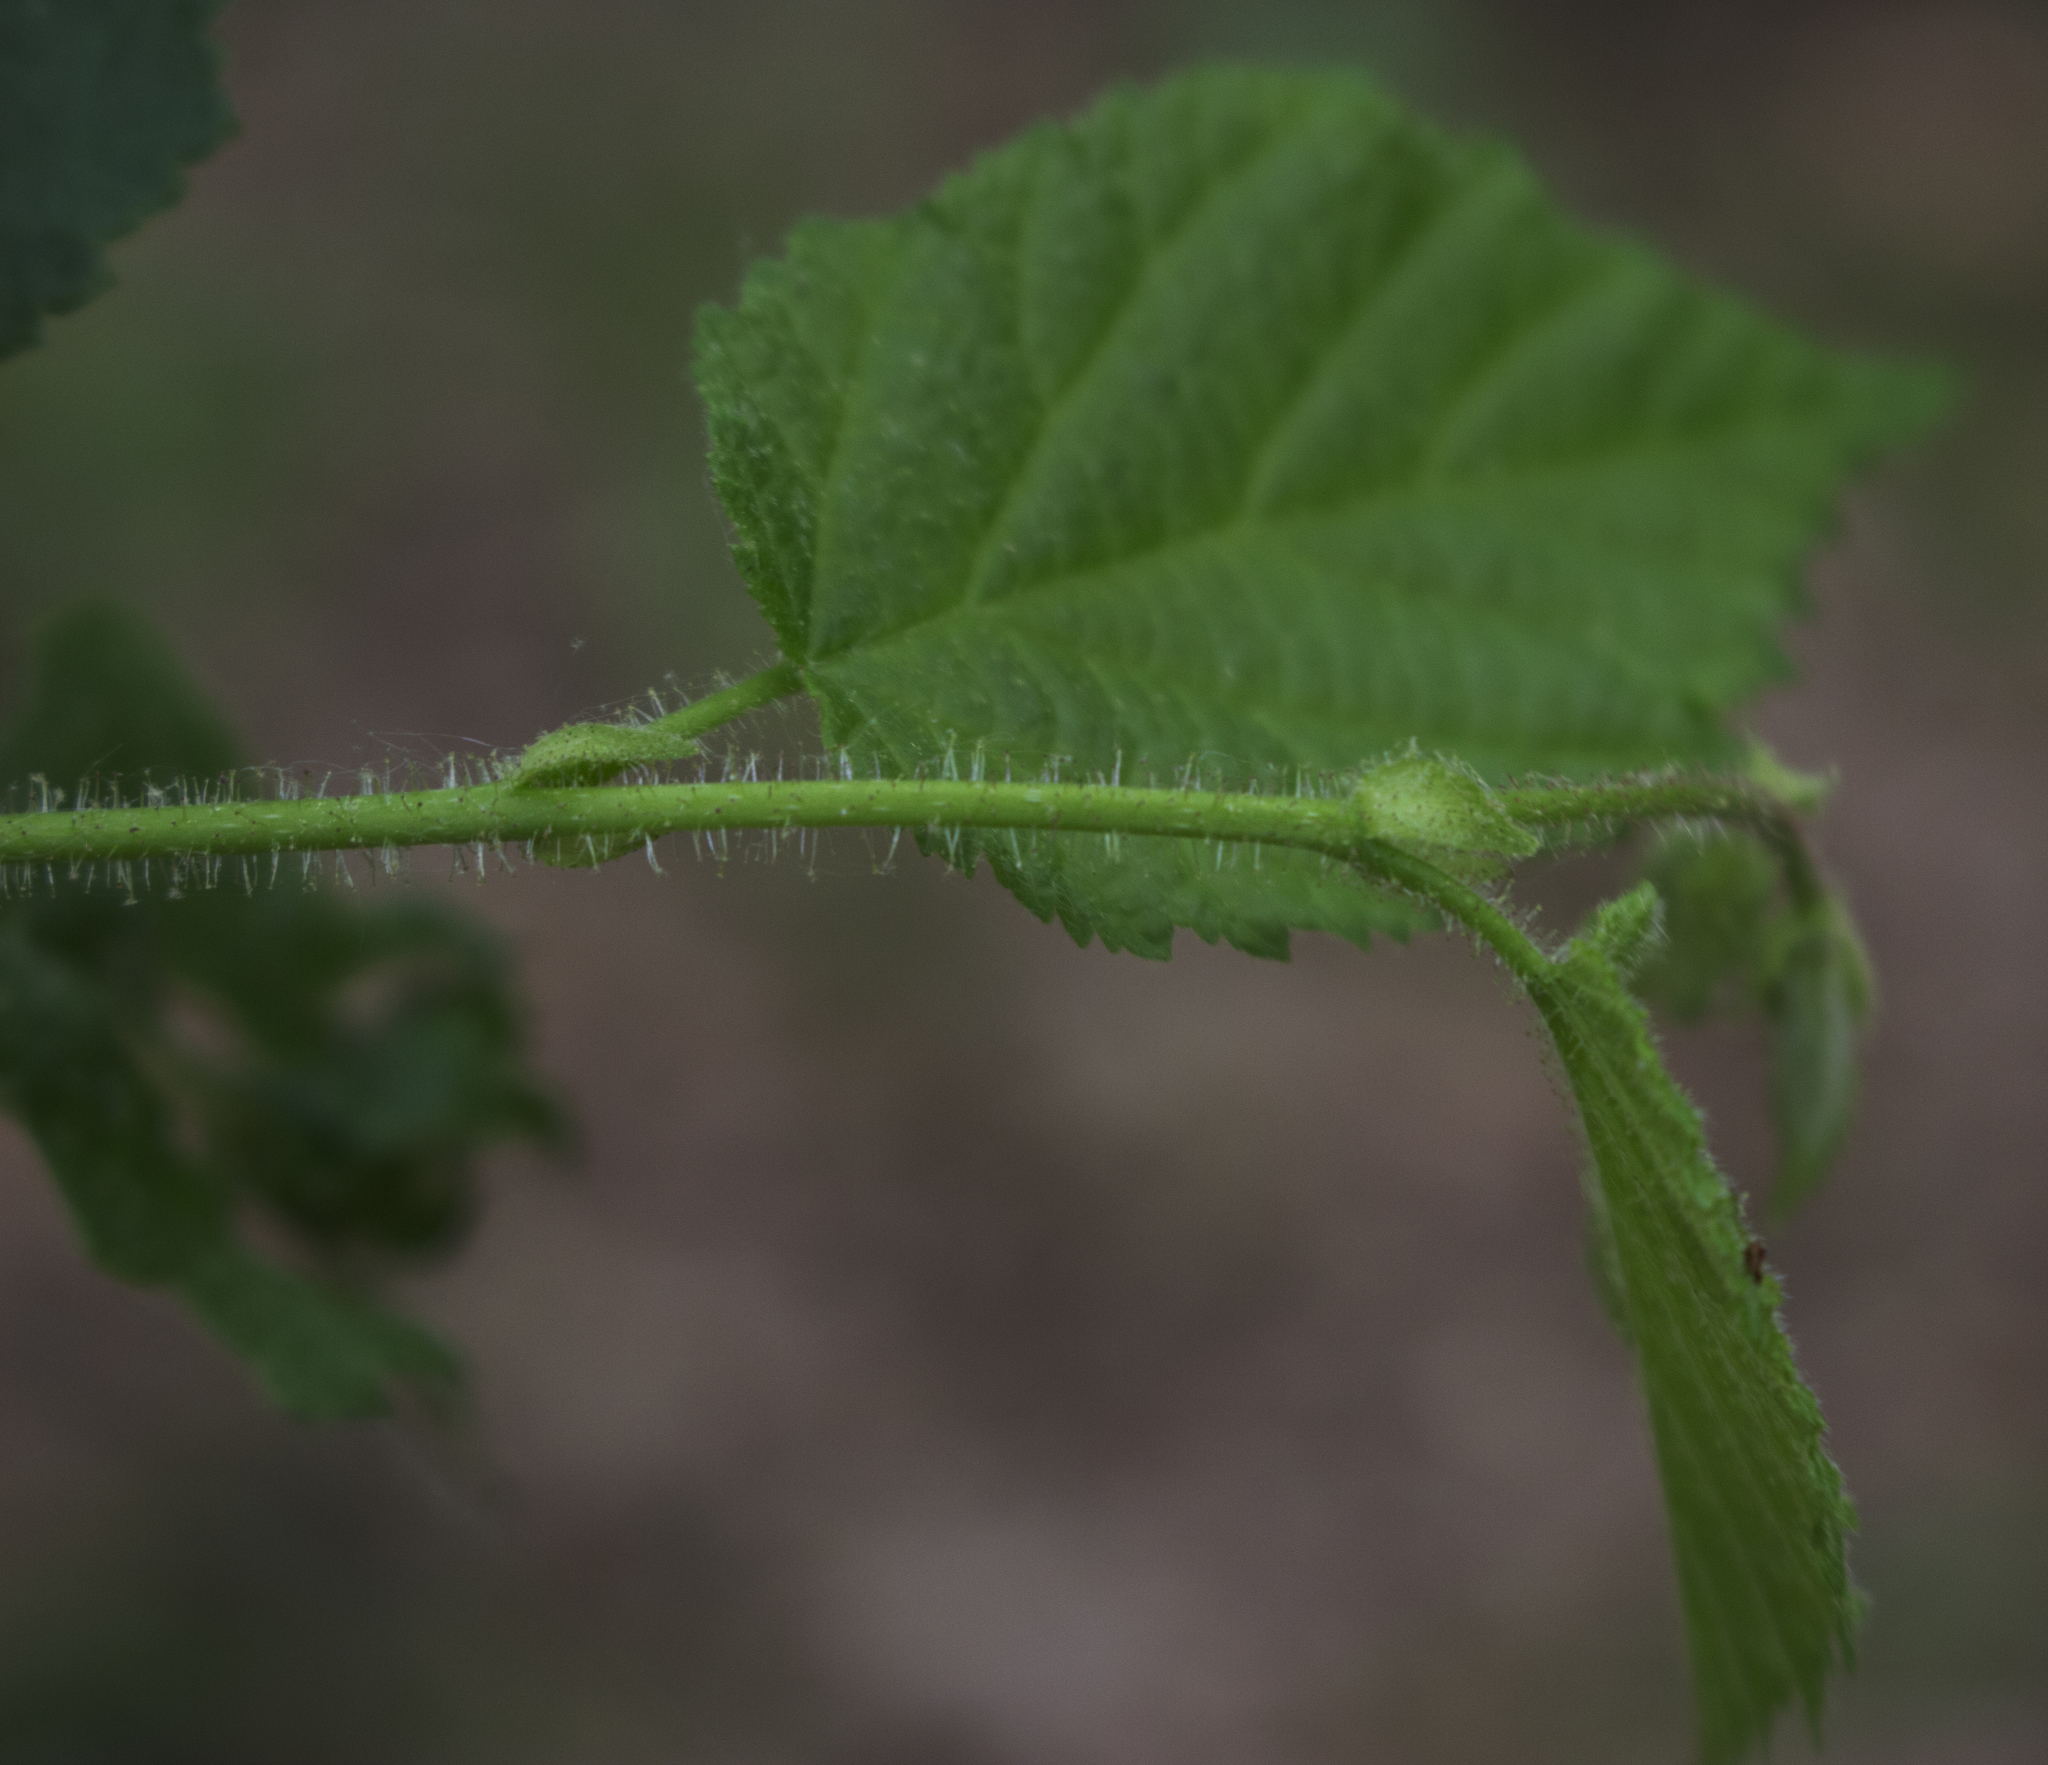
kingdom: Plantae
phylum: Tracheophyta
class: Magnoliopsida
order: Fagales
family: Betulaceae
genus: Corylus
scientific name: Corylus americana
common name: American hazel
